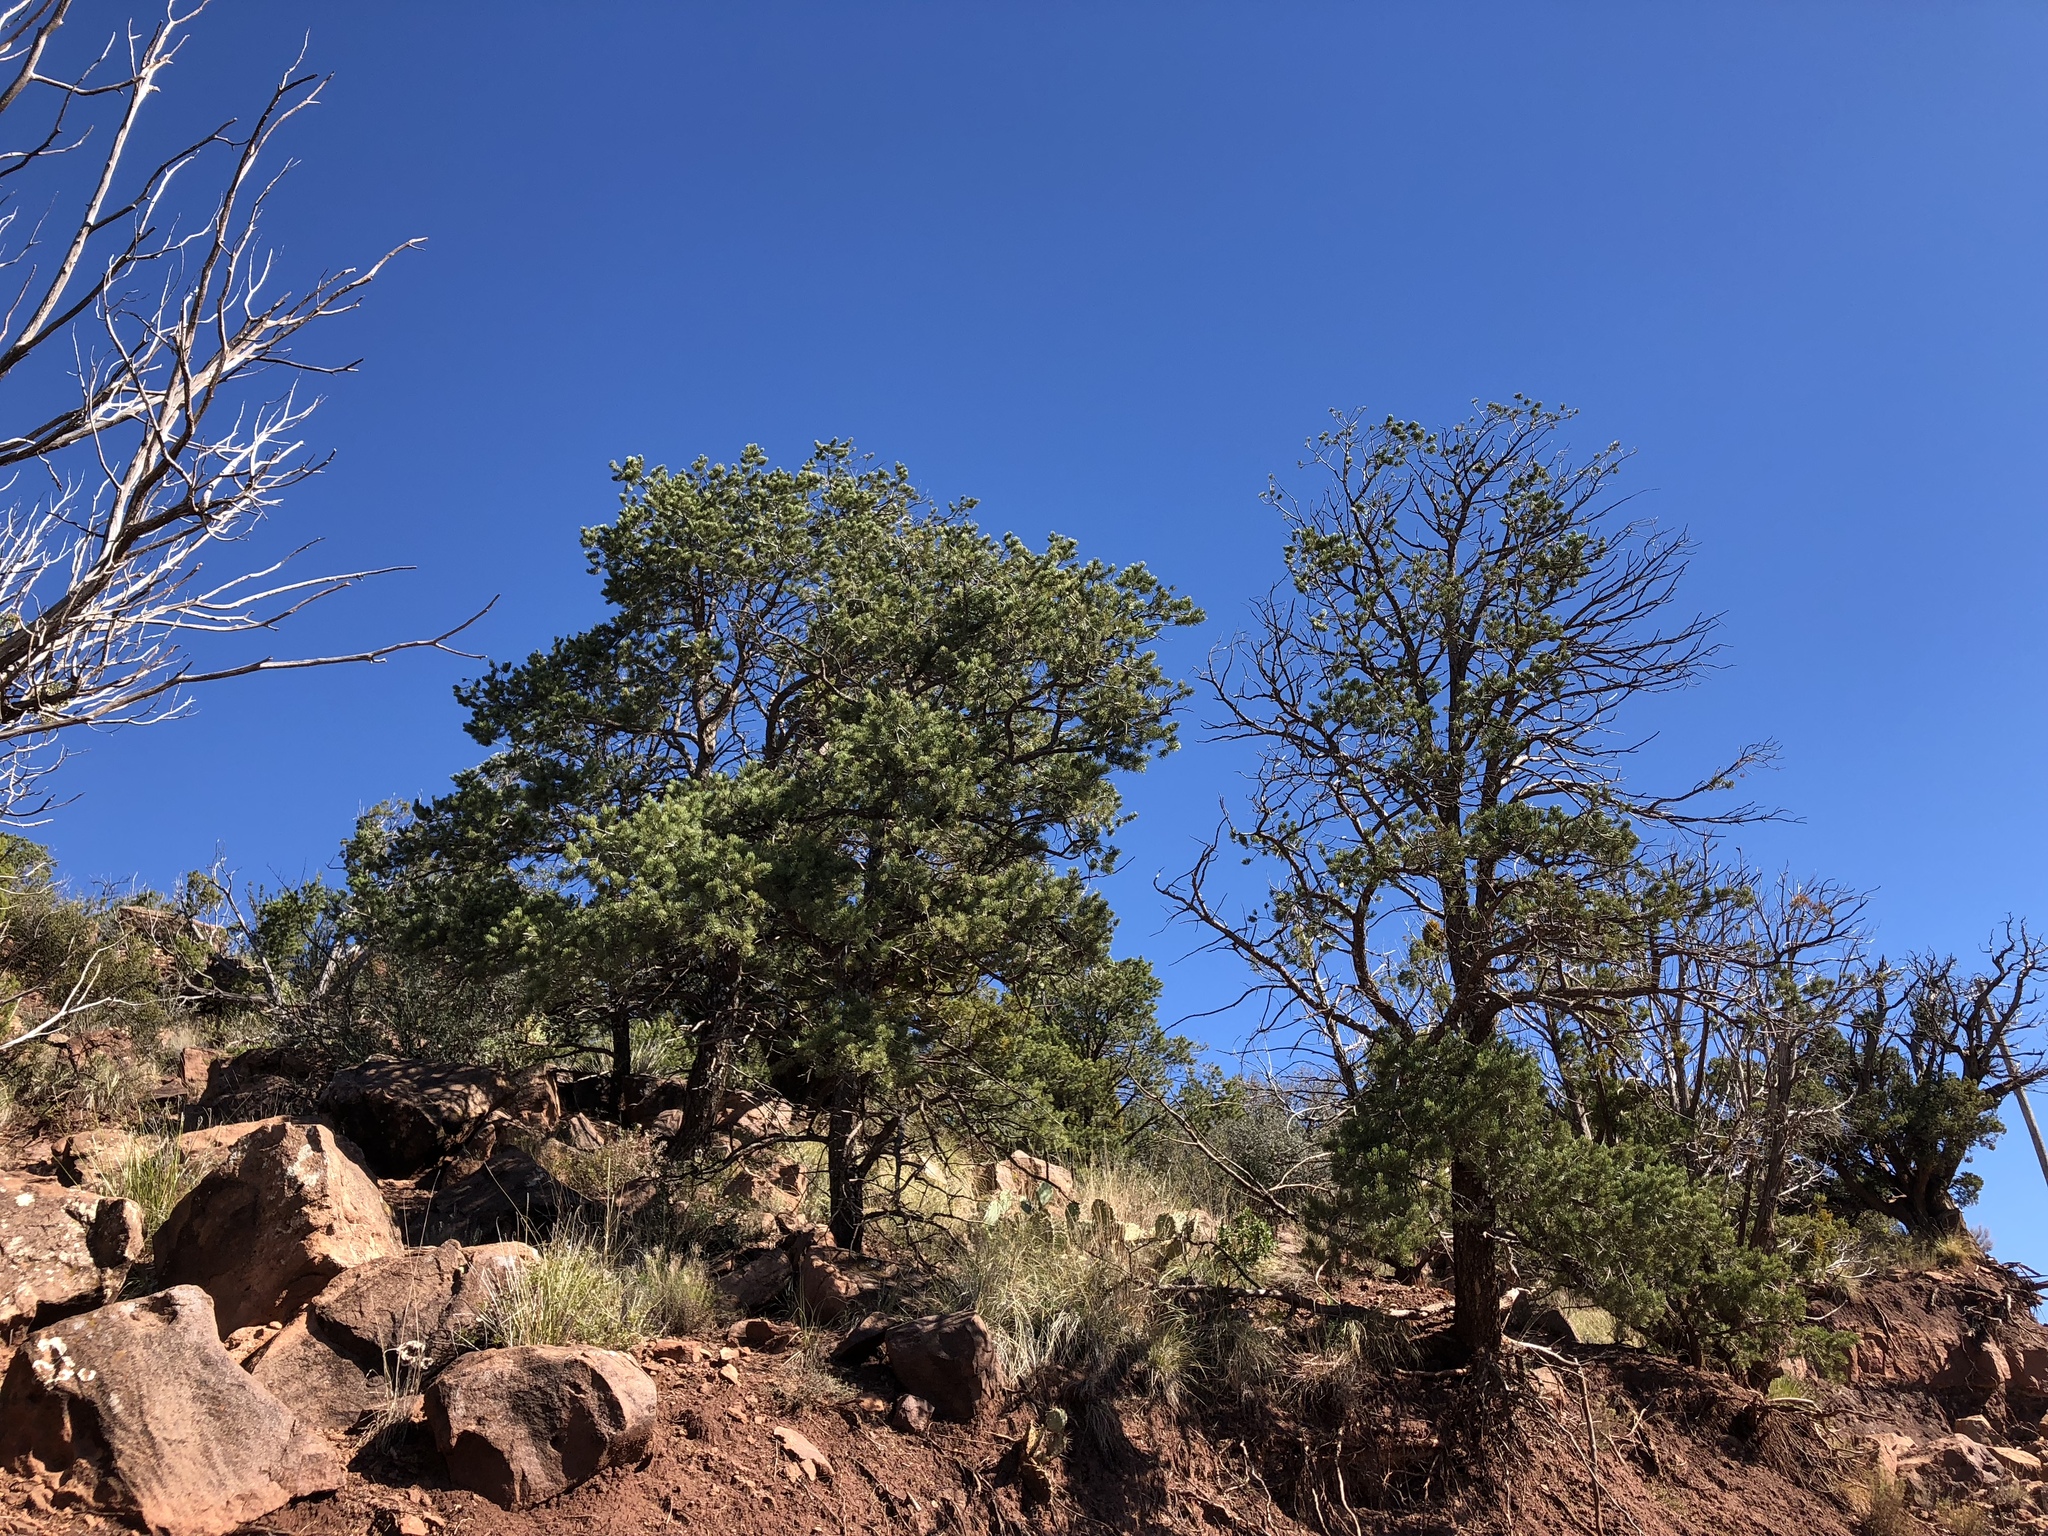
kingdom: Plantae
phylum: Tracheophyta
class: Pinopsida
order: Pinales
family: Pinaceae
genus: Pinus
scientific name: Pinus edulis
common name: Colorado pinyon
